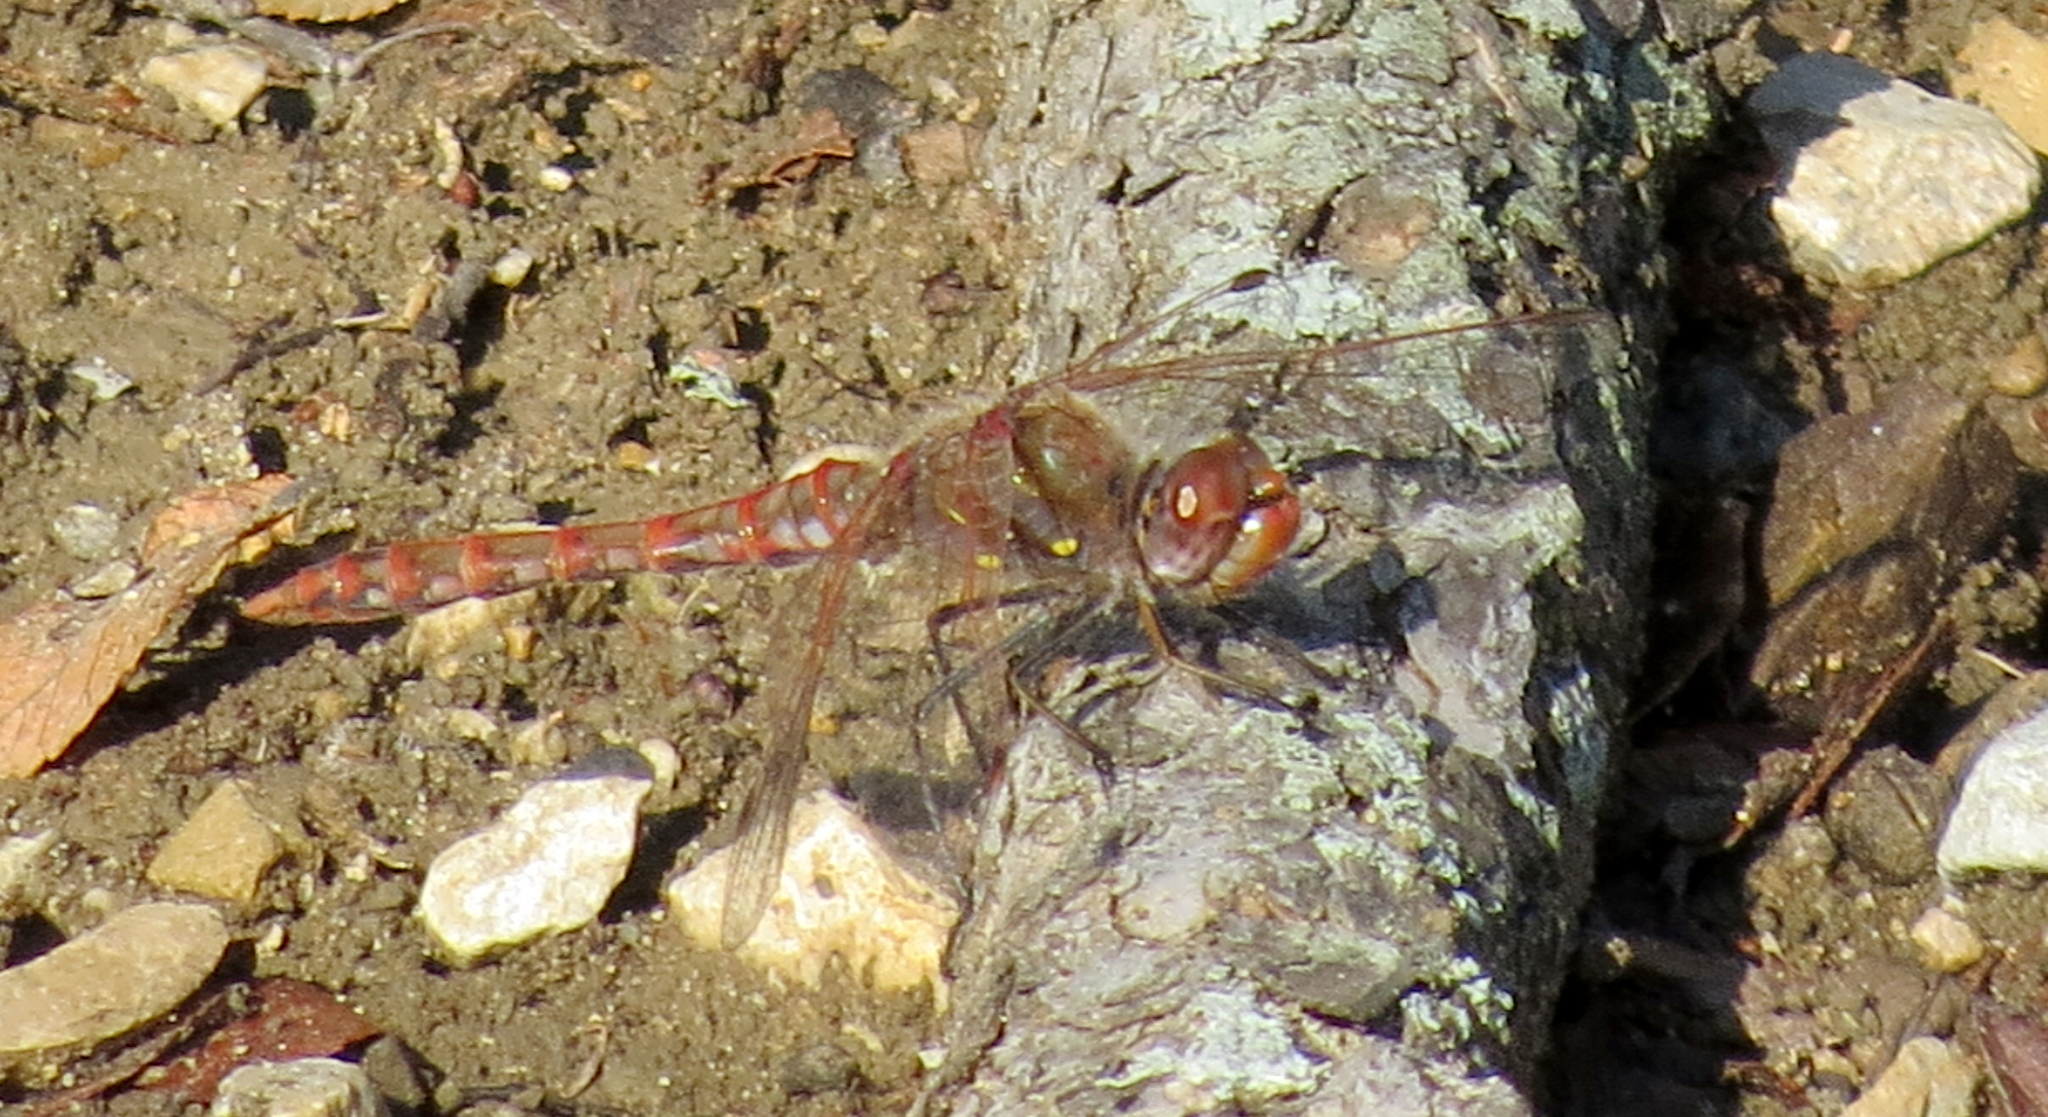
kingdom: Animalia
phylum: Arthropoda
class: Insecta
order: Odonata
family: Libellulidae
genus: Sympetrum
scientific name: Sympetrum corruptum
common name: Variegated meadowhawk
